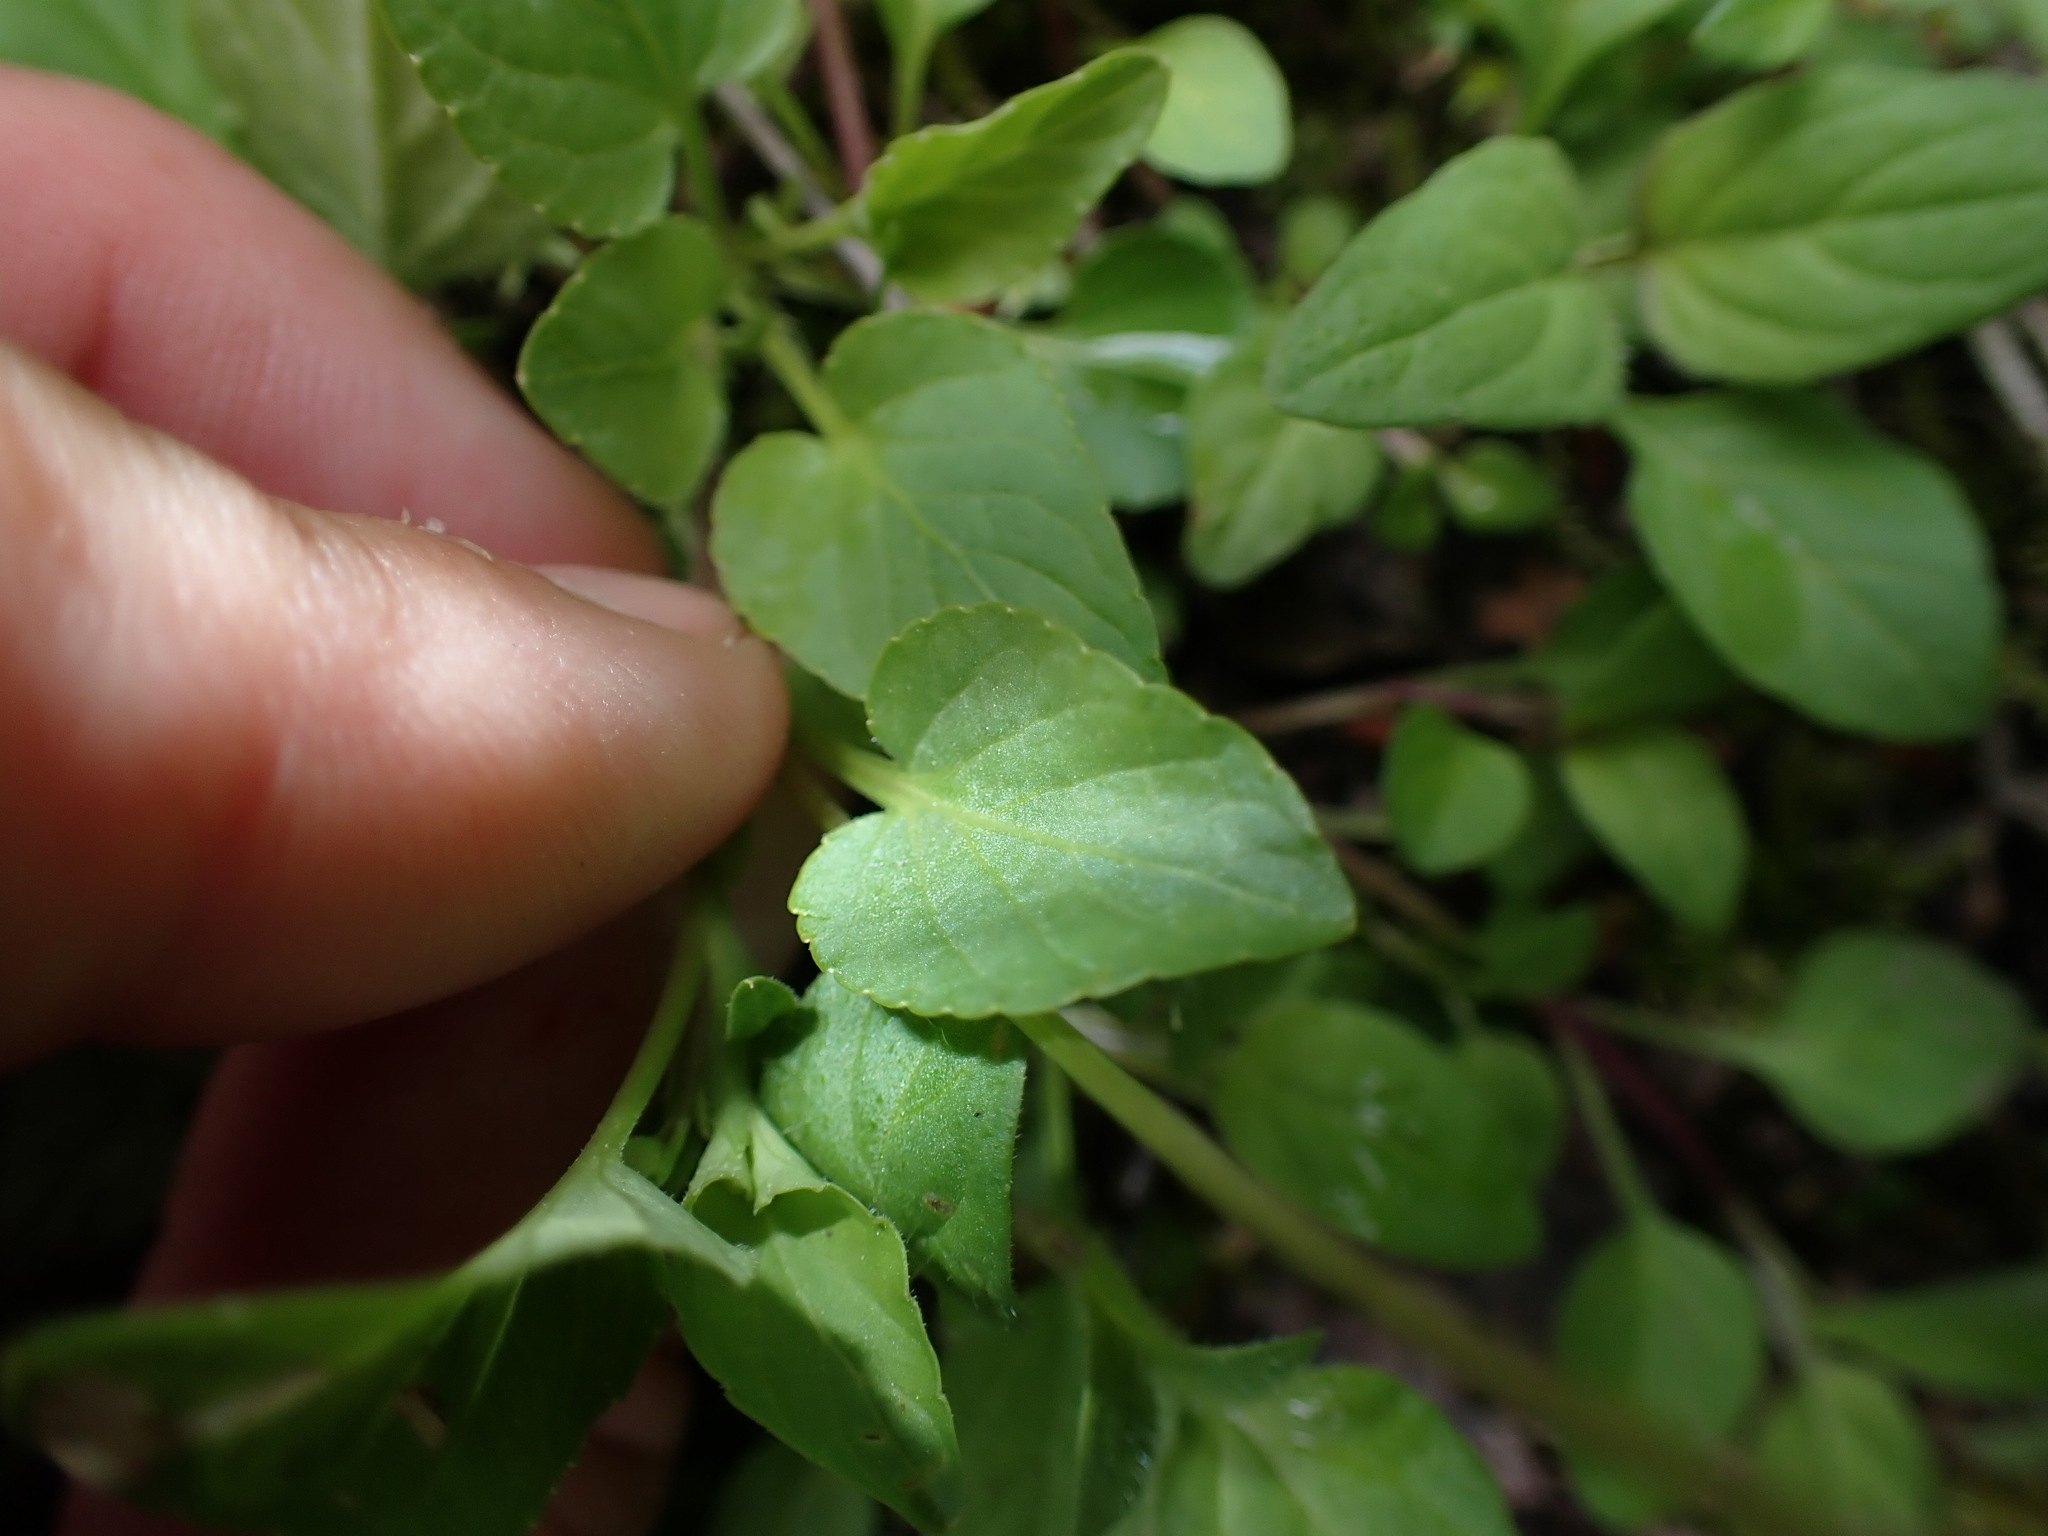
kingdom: Plantae
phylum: Tracheophyta
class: Magnoliopsida
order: Malpighiales
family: Violaceae
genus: Viola
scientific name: Viola adunca
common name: Sand violet
